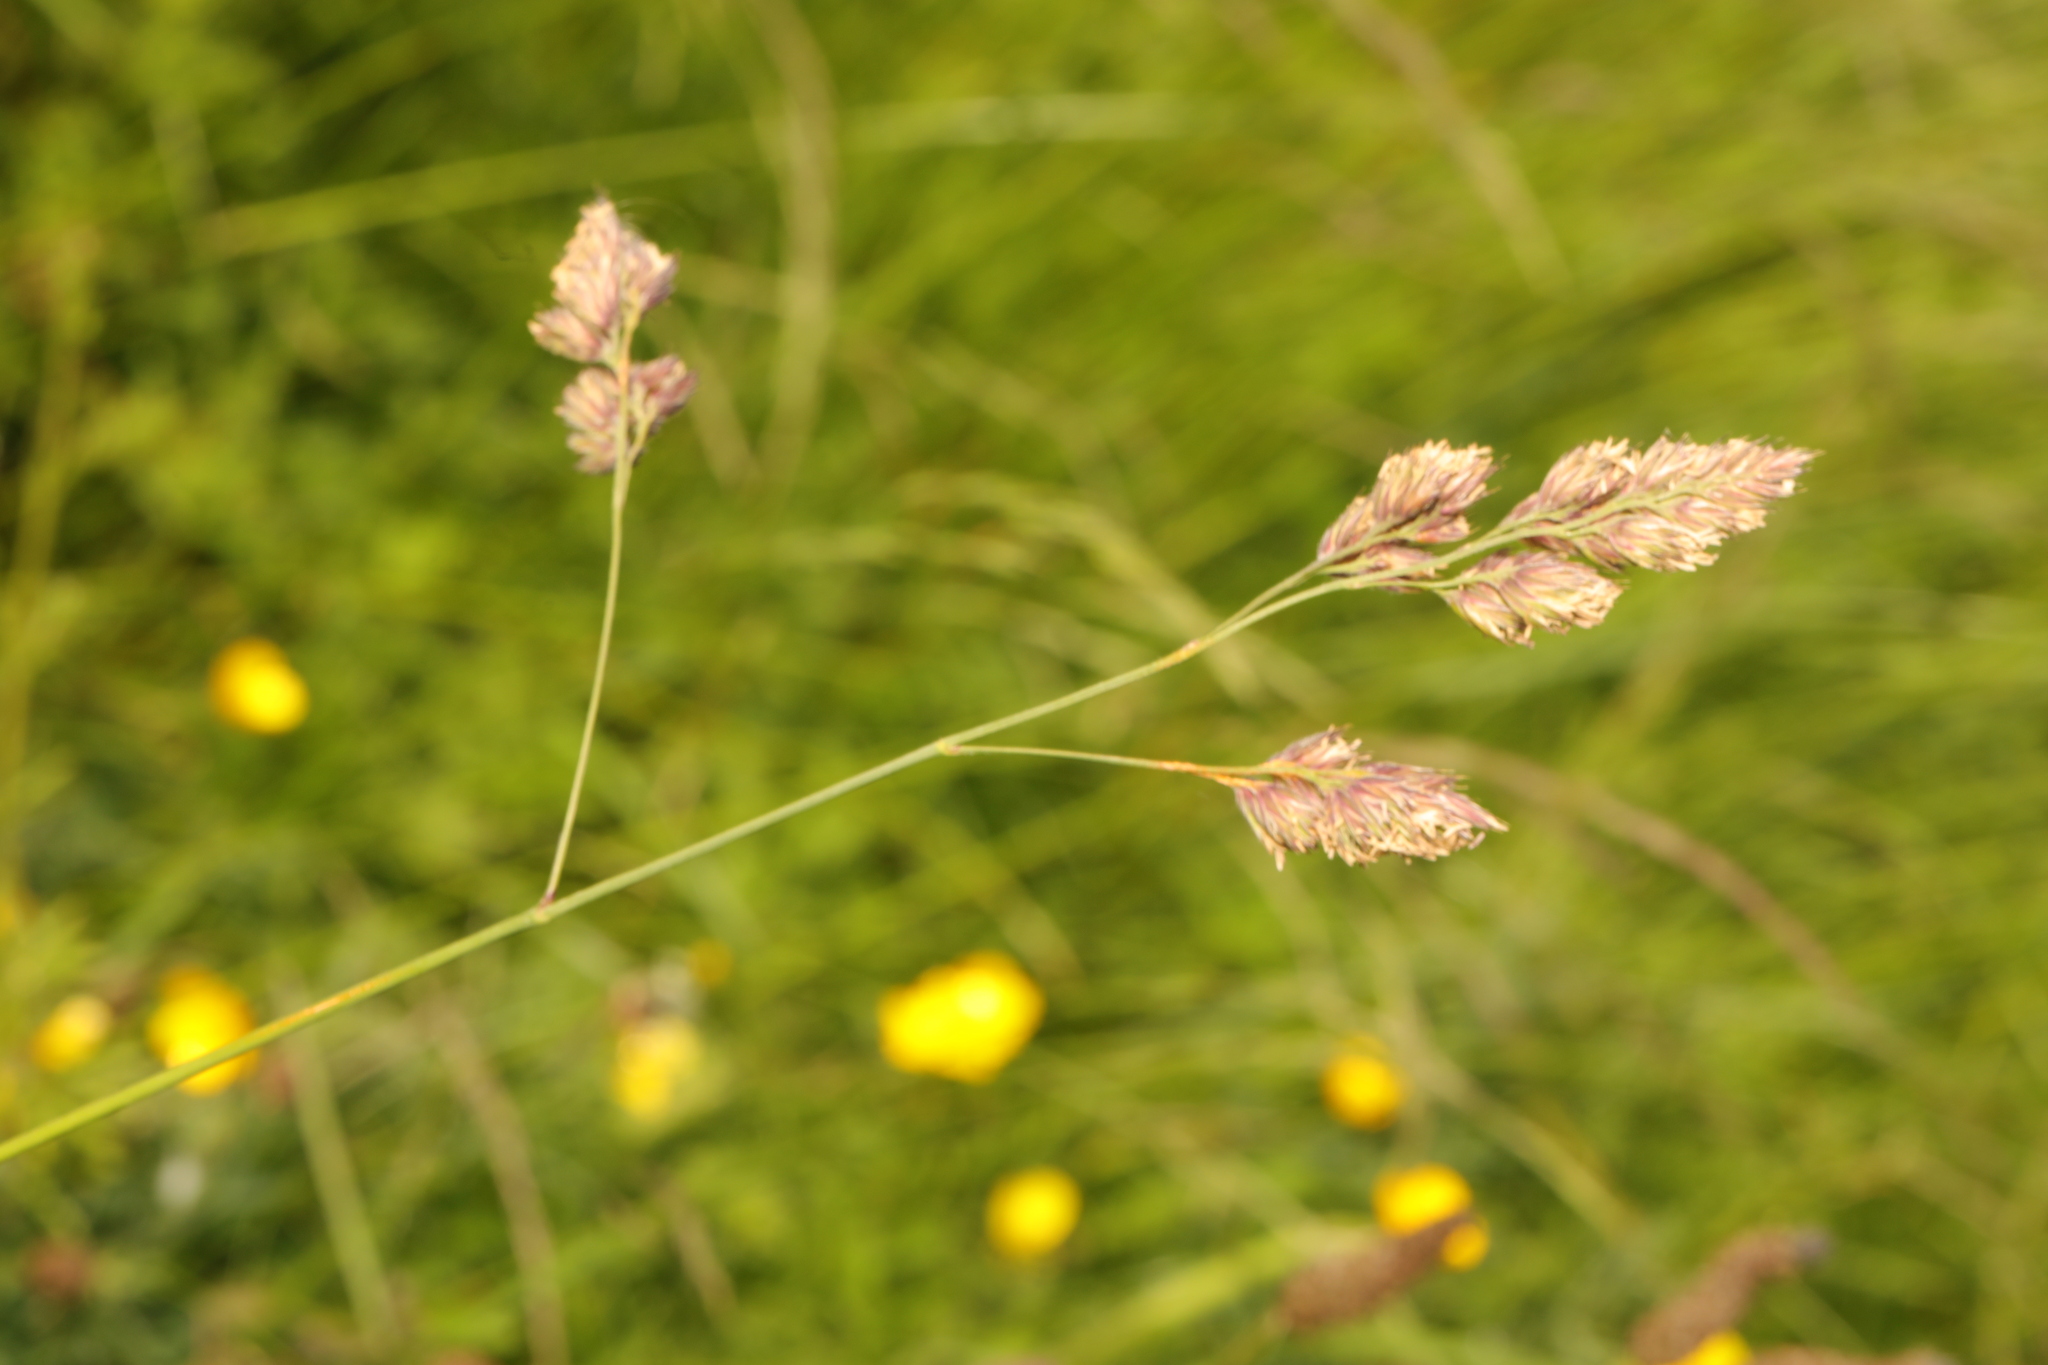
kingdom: Plantae
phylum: Tracheophyta
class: Liliopsida
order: Poales
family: Poaceae
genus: Dactylis
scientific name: Dactylis glomerata
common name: Orchardgrass
